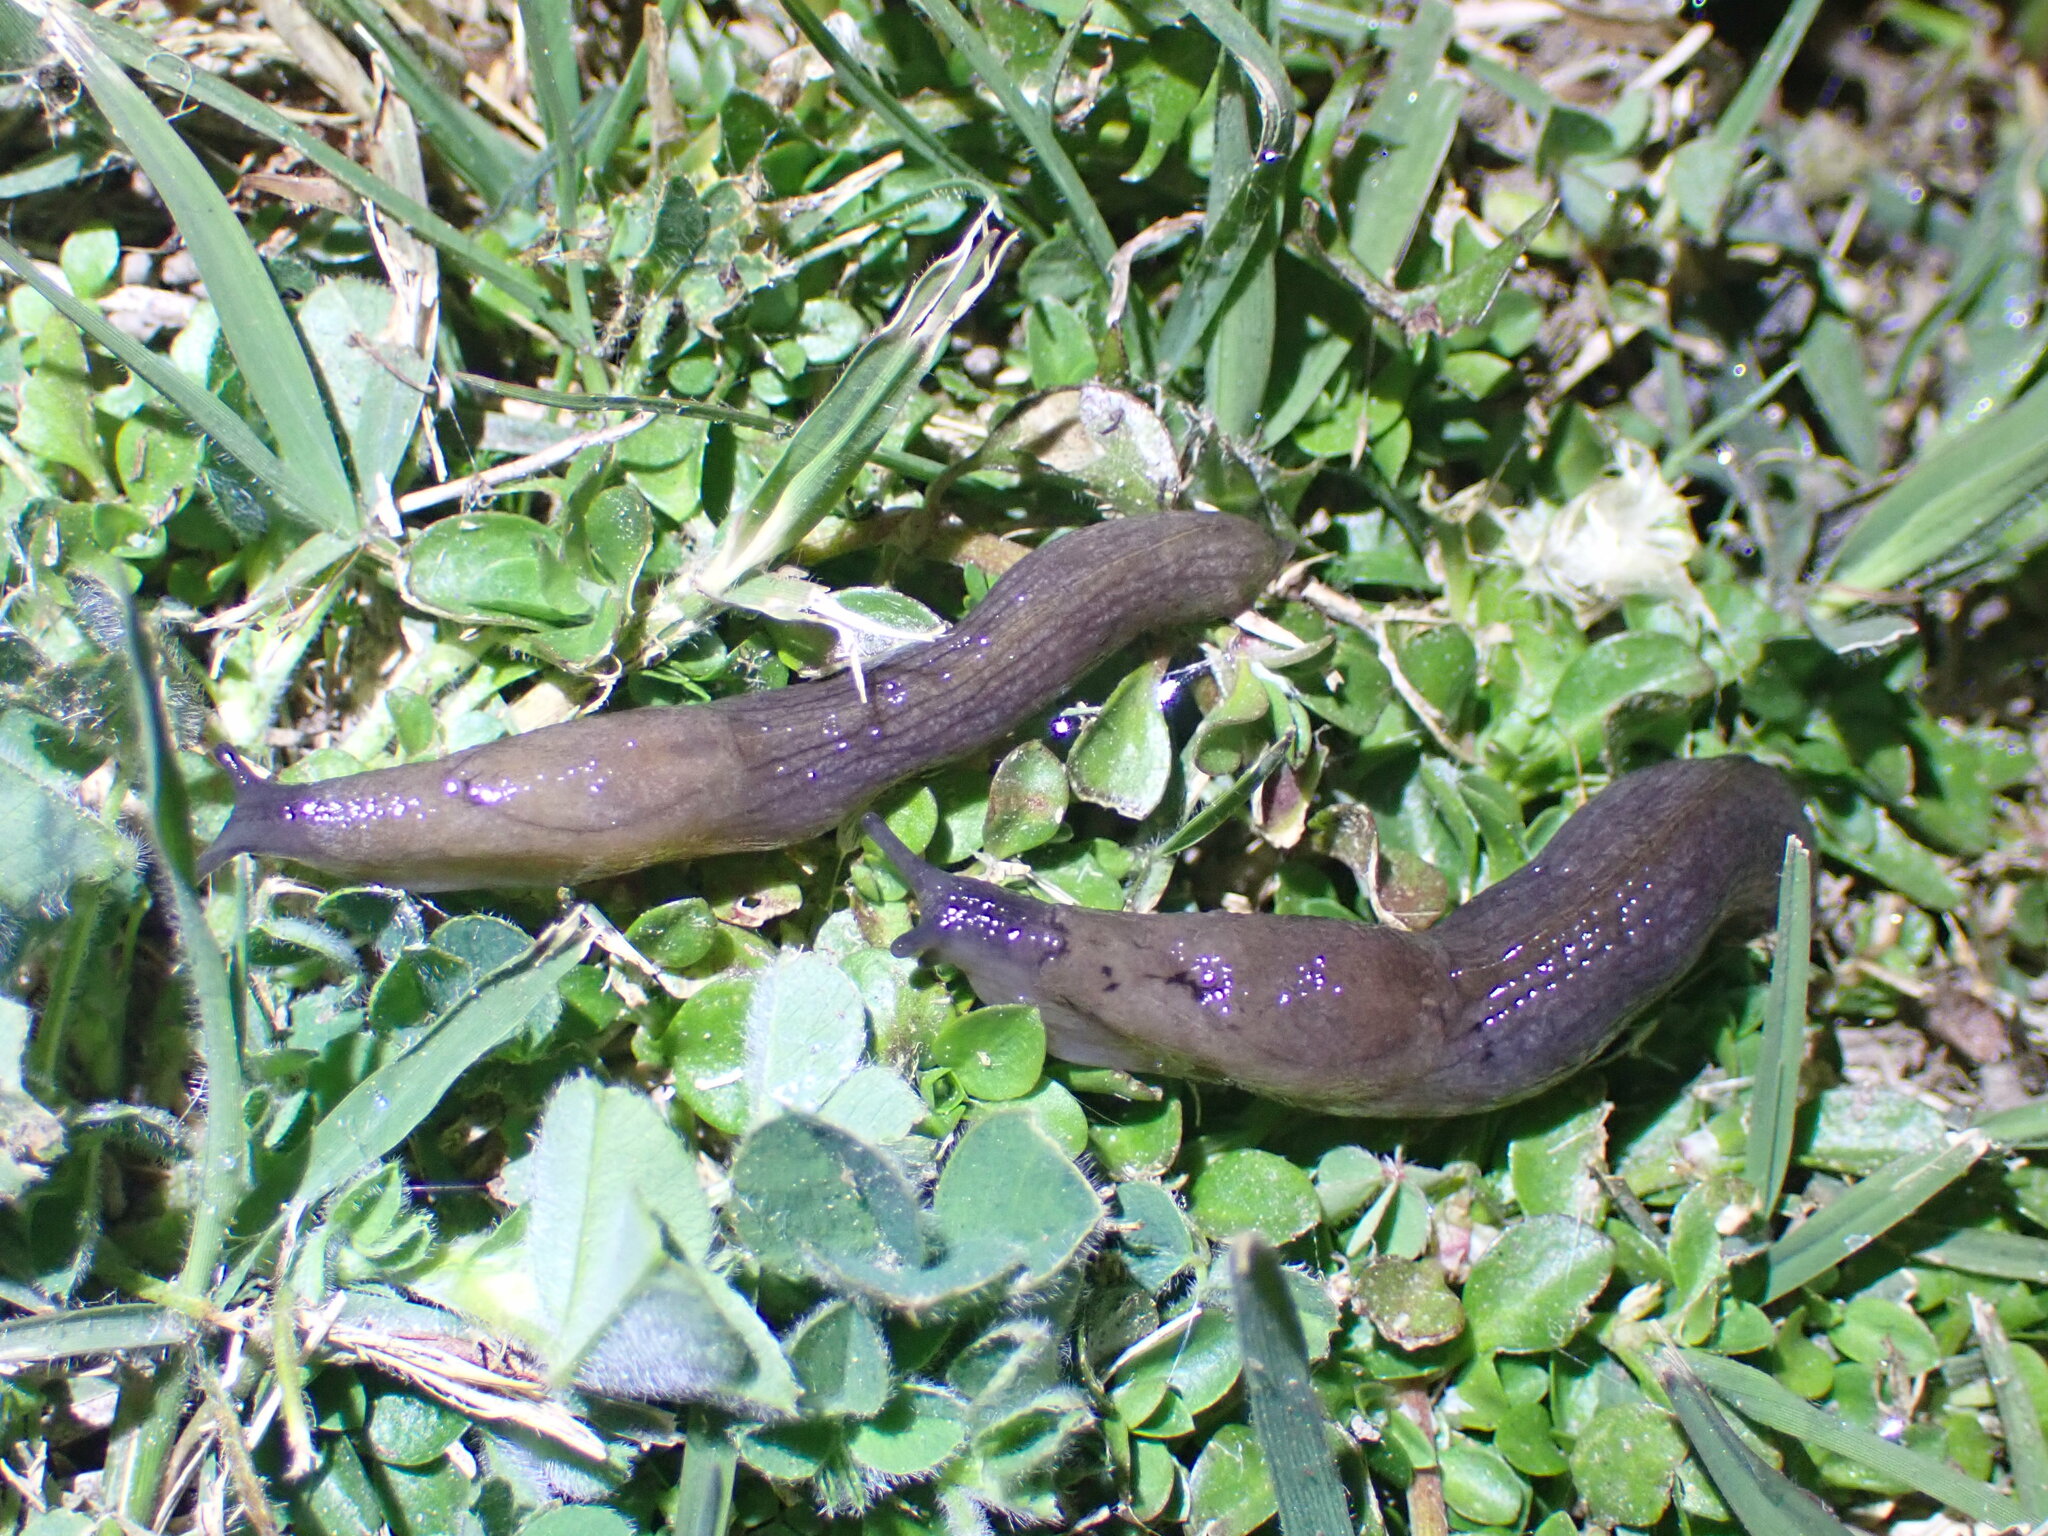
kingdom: Animalia
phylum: Mollusca
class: Gastropoda
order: Stylommatophora
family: Milacidae
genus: Milax
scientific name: Milax gagates
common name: Greenhouse slug
